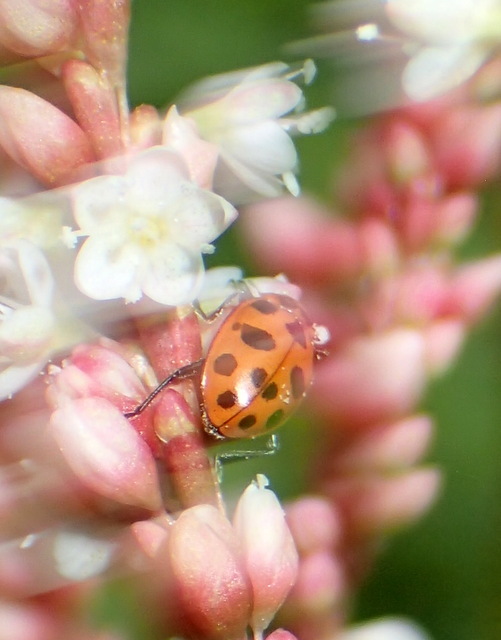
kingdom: Animalia
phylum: Arthropoda
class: Insecta
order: Coleoptera
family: Coccinellidae
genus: Coleomegilla
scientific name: Coleomegilla maculata
